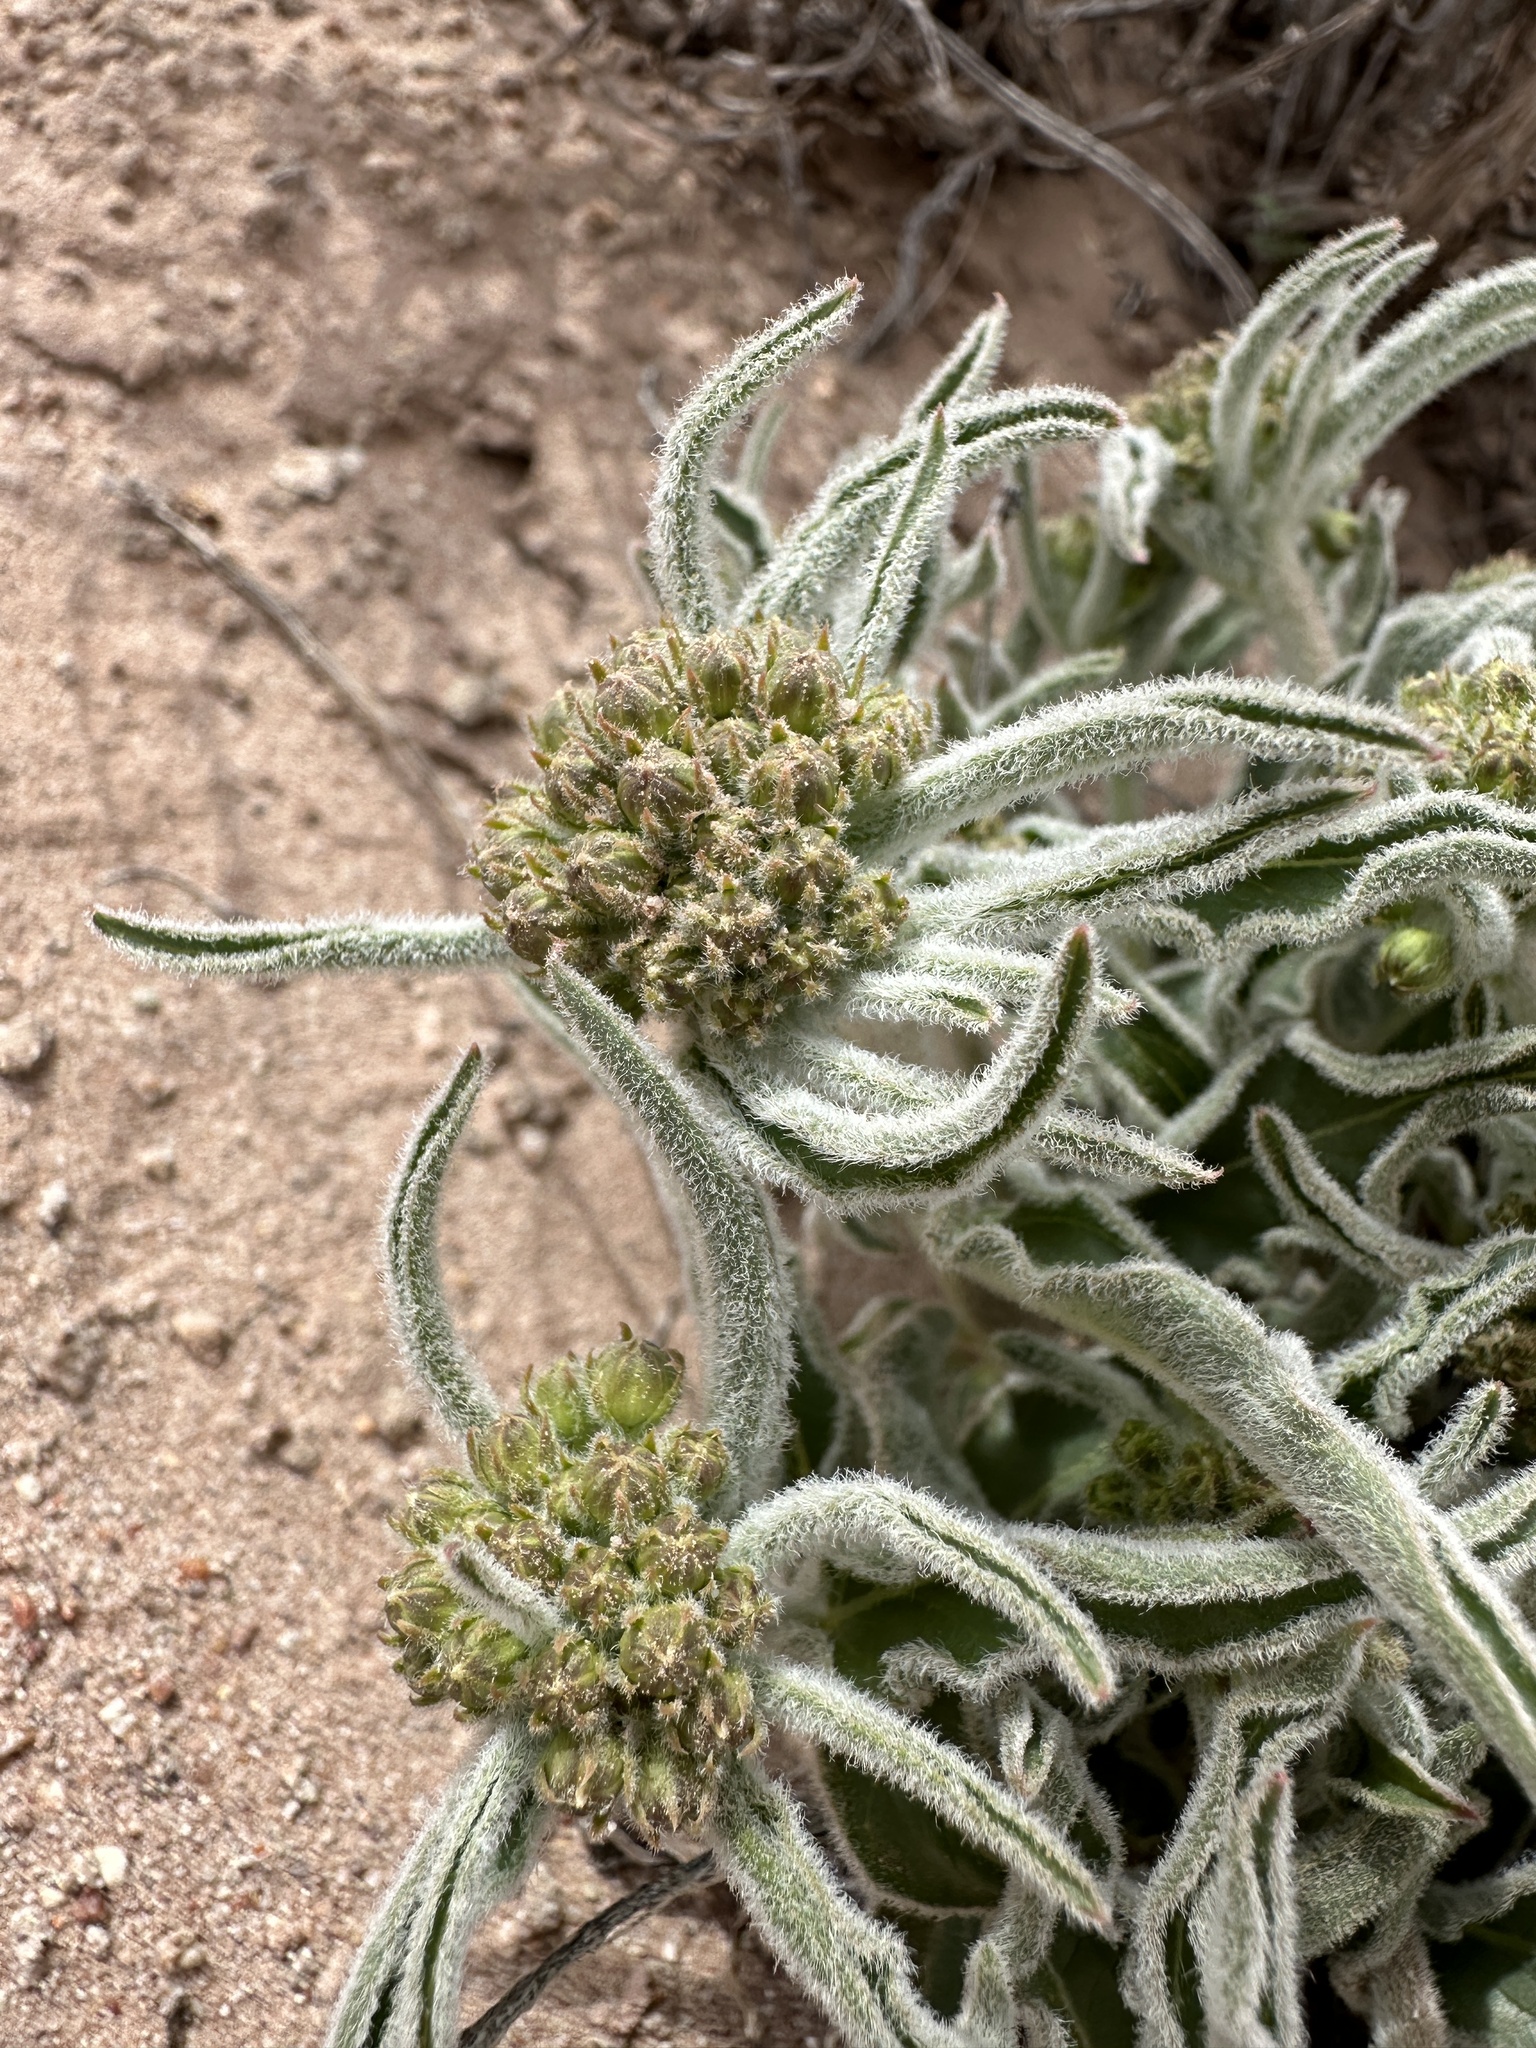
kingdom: Plantae
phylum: Tracheophyta
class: Magnoliopsida
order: Gentianales
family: Apocynaceae
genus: Asclepias
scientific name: Asclepias involucrata
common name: Dwarf milkweed
